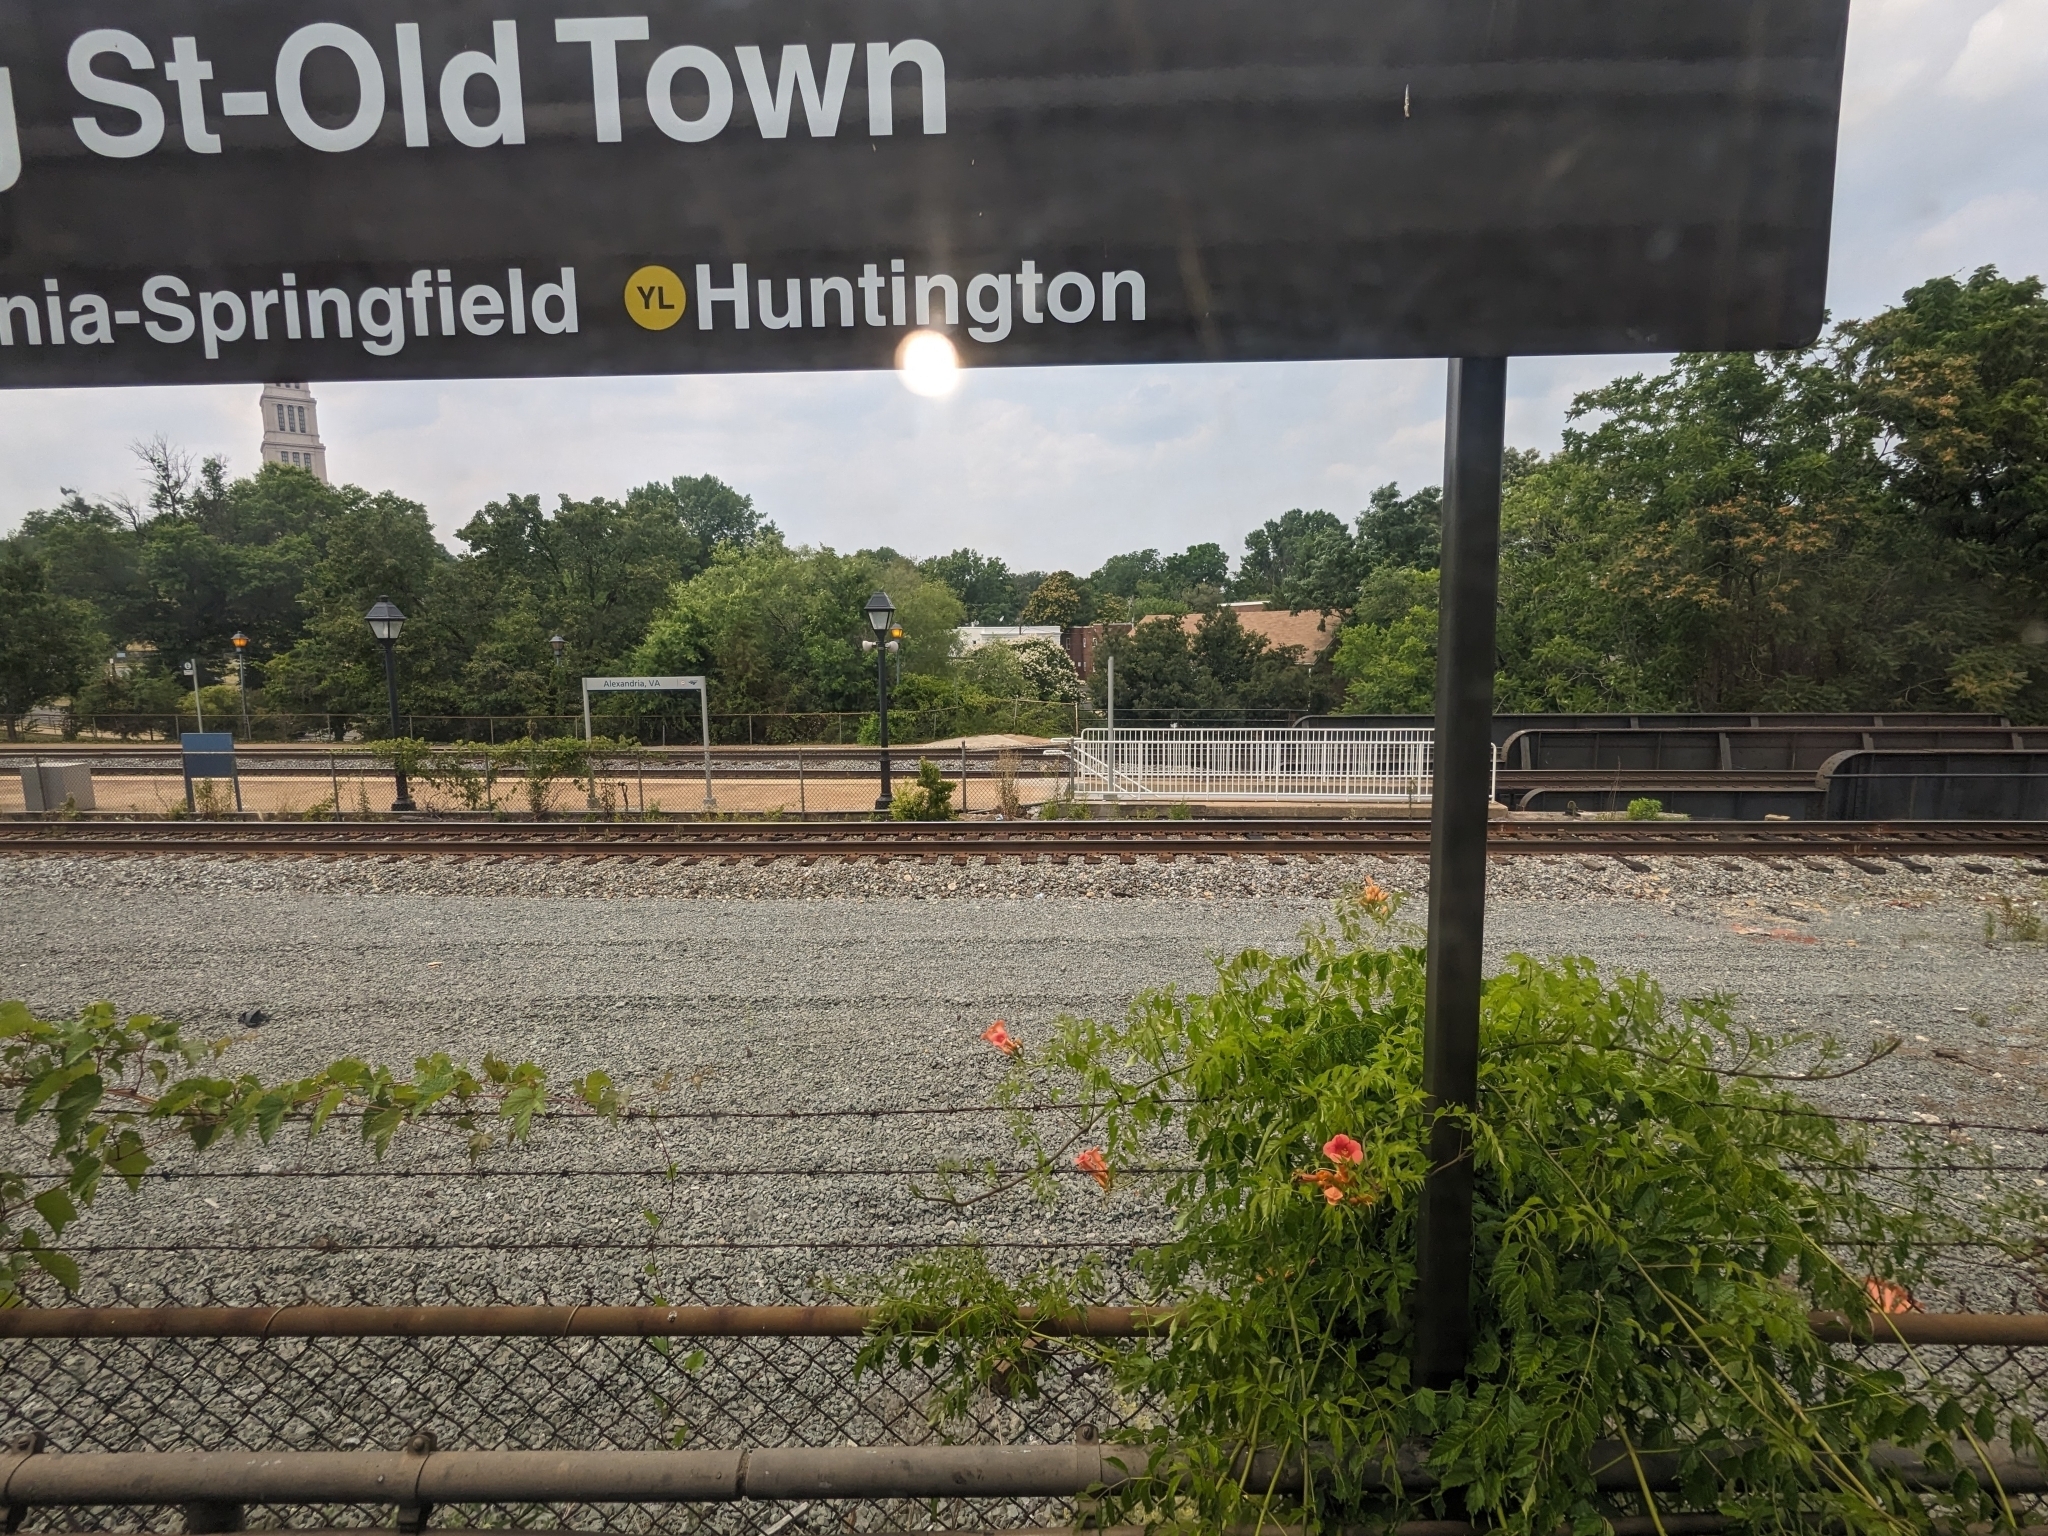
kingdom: Plantae
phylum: Tracheophyta
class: Magnoliopsida
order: Lamiales
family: Bignoniaceae
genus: Campsis
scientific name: Campsis radicans
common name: Trumpet-creeper
